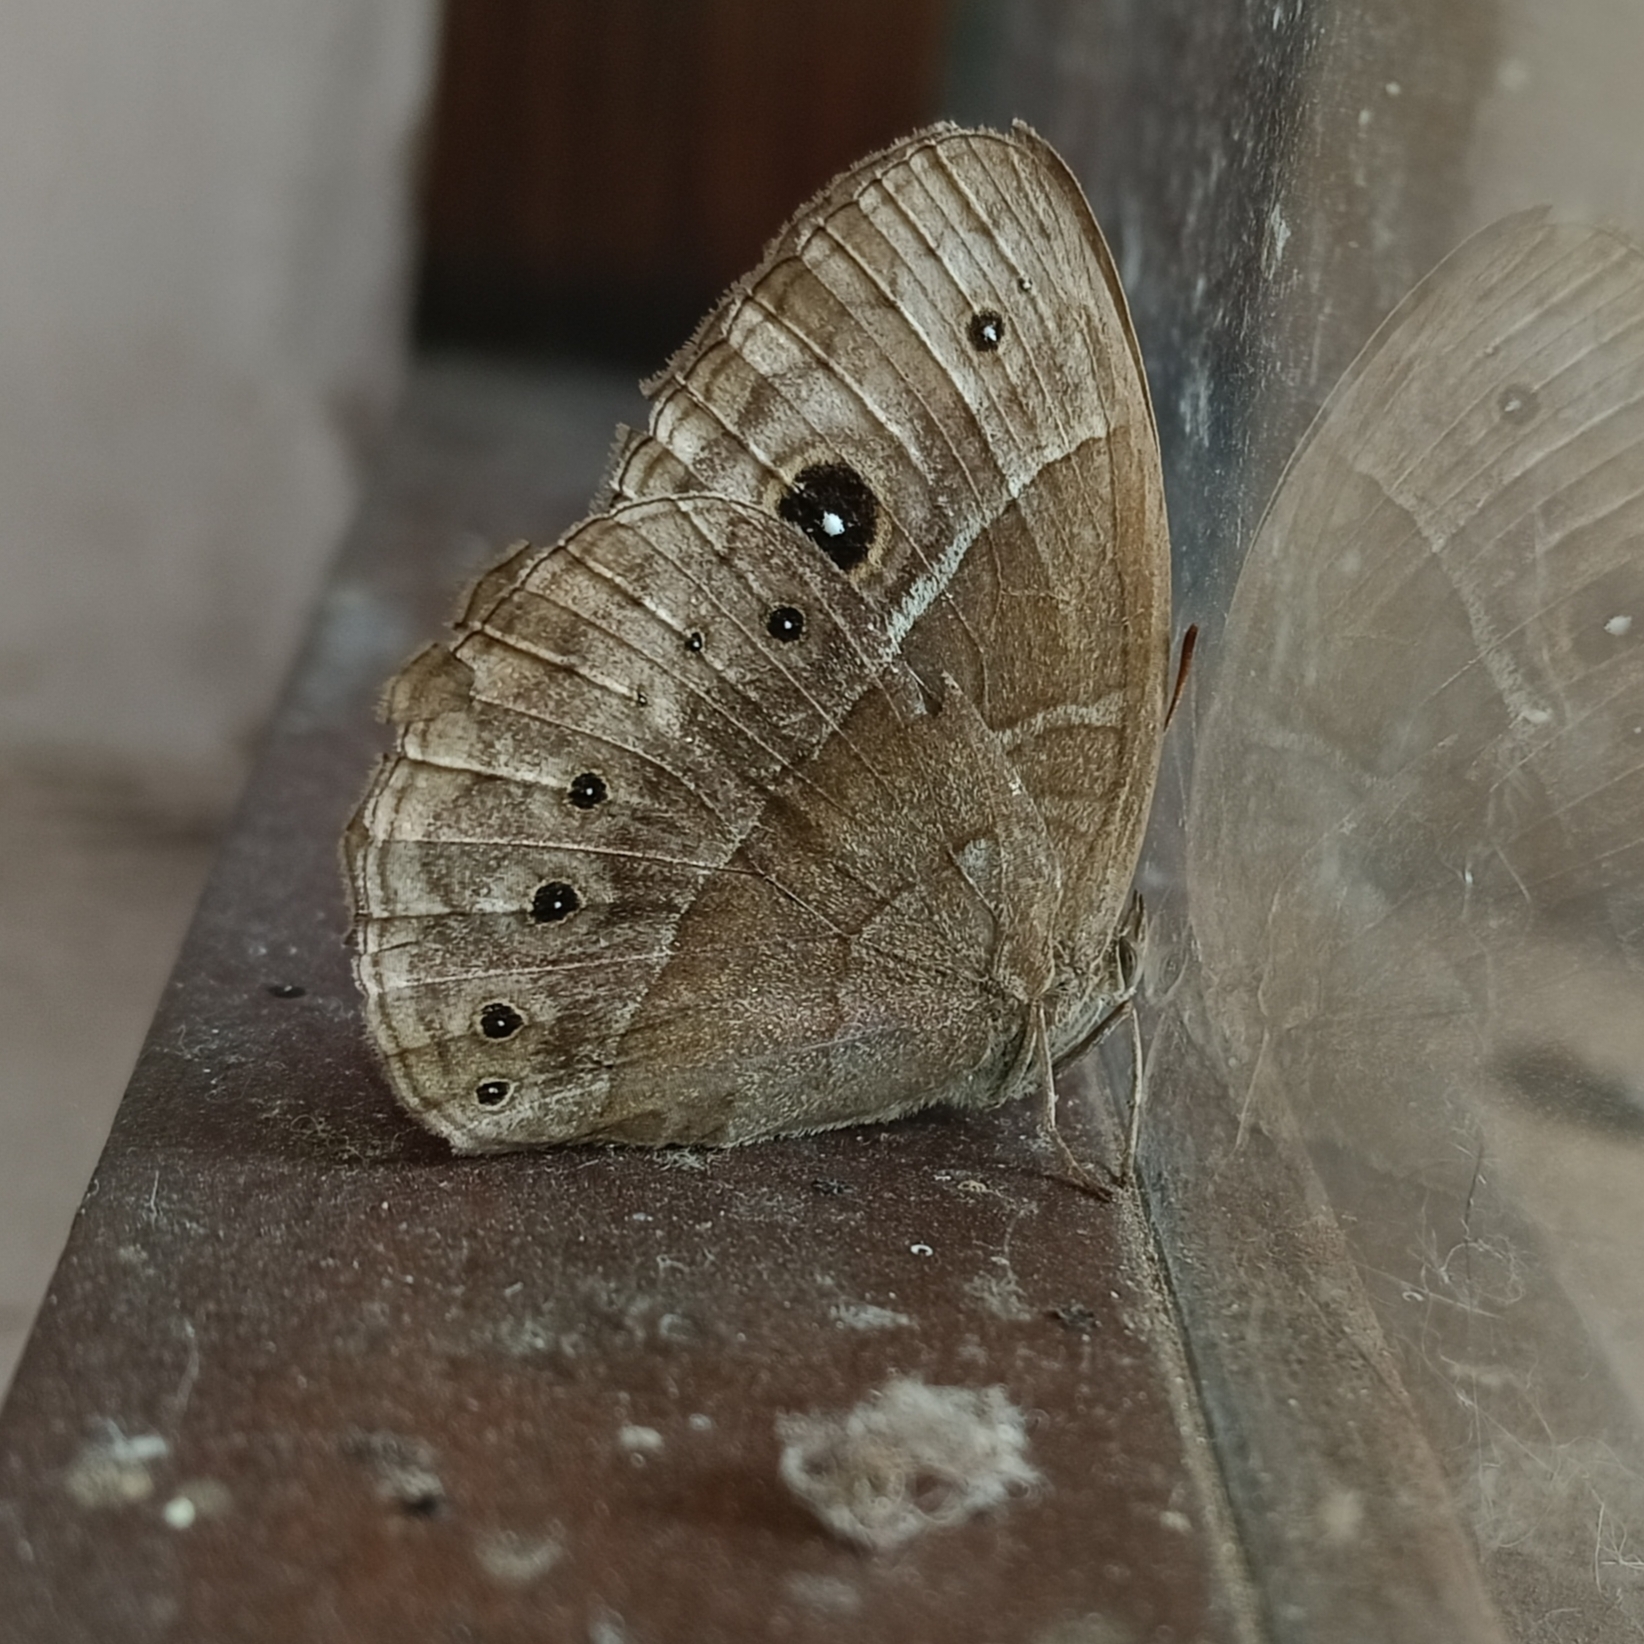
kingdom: Animalia
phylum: Arthropoda
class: Insecta
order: Lepidoptera
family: Nymphalidae
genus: Mycalesis
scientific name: Mycalesis rhacotis
